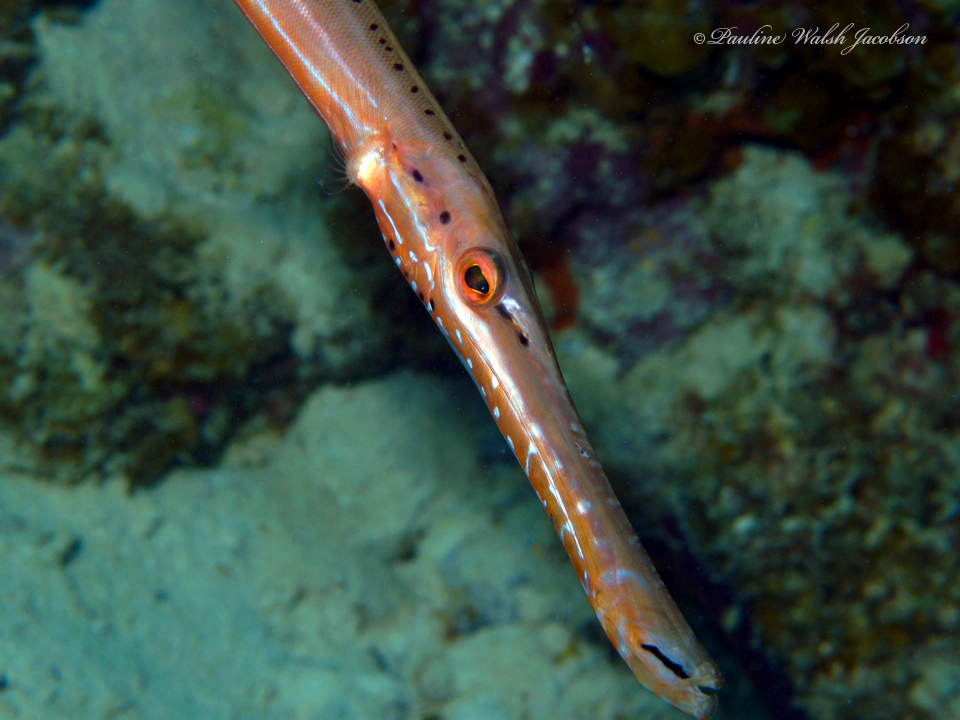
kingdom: Animalia
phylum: Chordata
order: Syngnathiformes
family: Aulostomidae
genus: Aulostomus
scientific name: Aulostomus maculatus
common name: West atlantic trumpetfish
